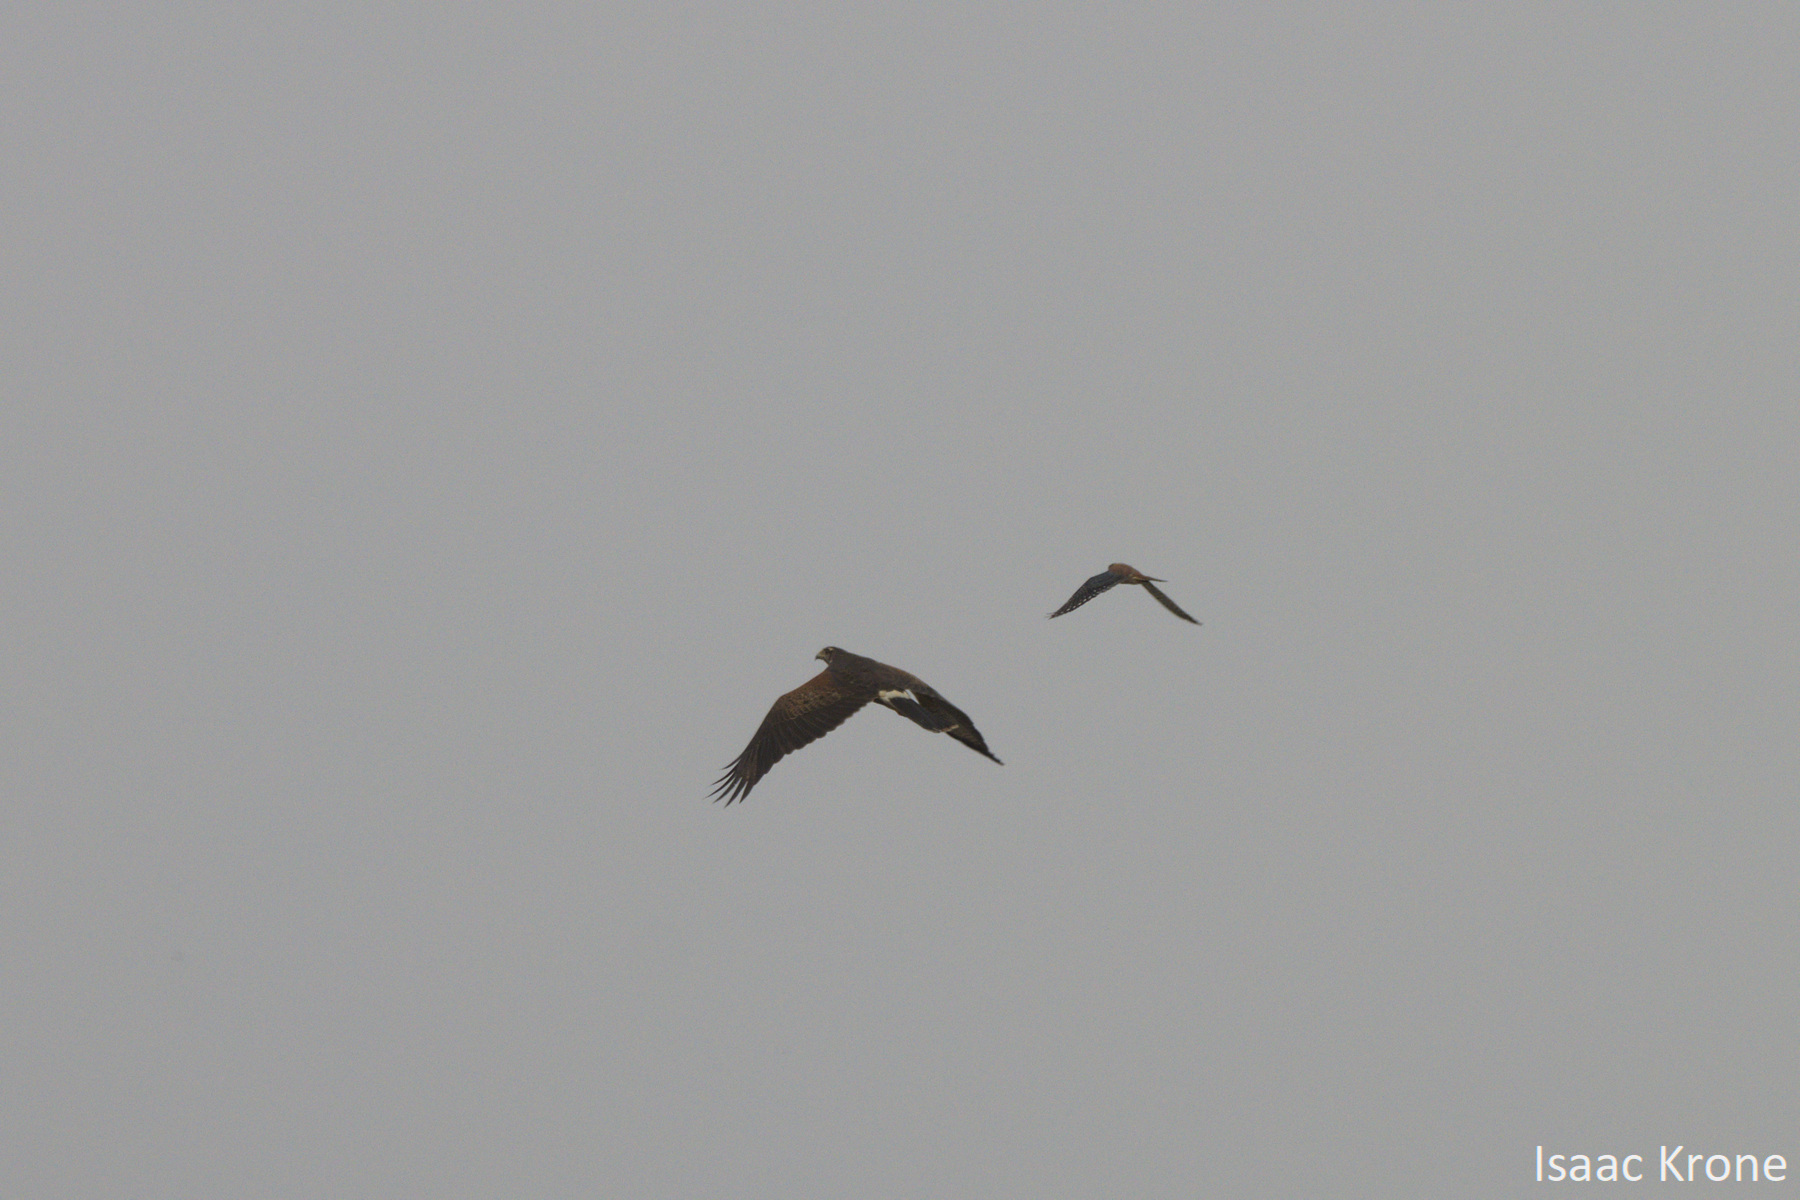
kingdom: Animalia
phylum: Chordata
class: Aves
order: Accipitriformes
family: Accipitridae
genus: Parabuteo
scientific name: Parabuteo unicinctus
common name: Harris's hawk
